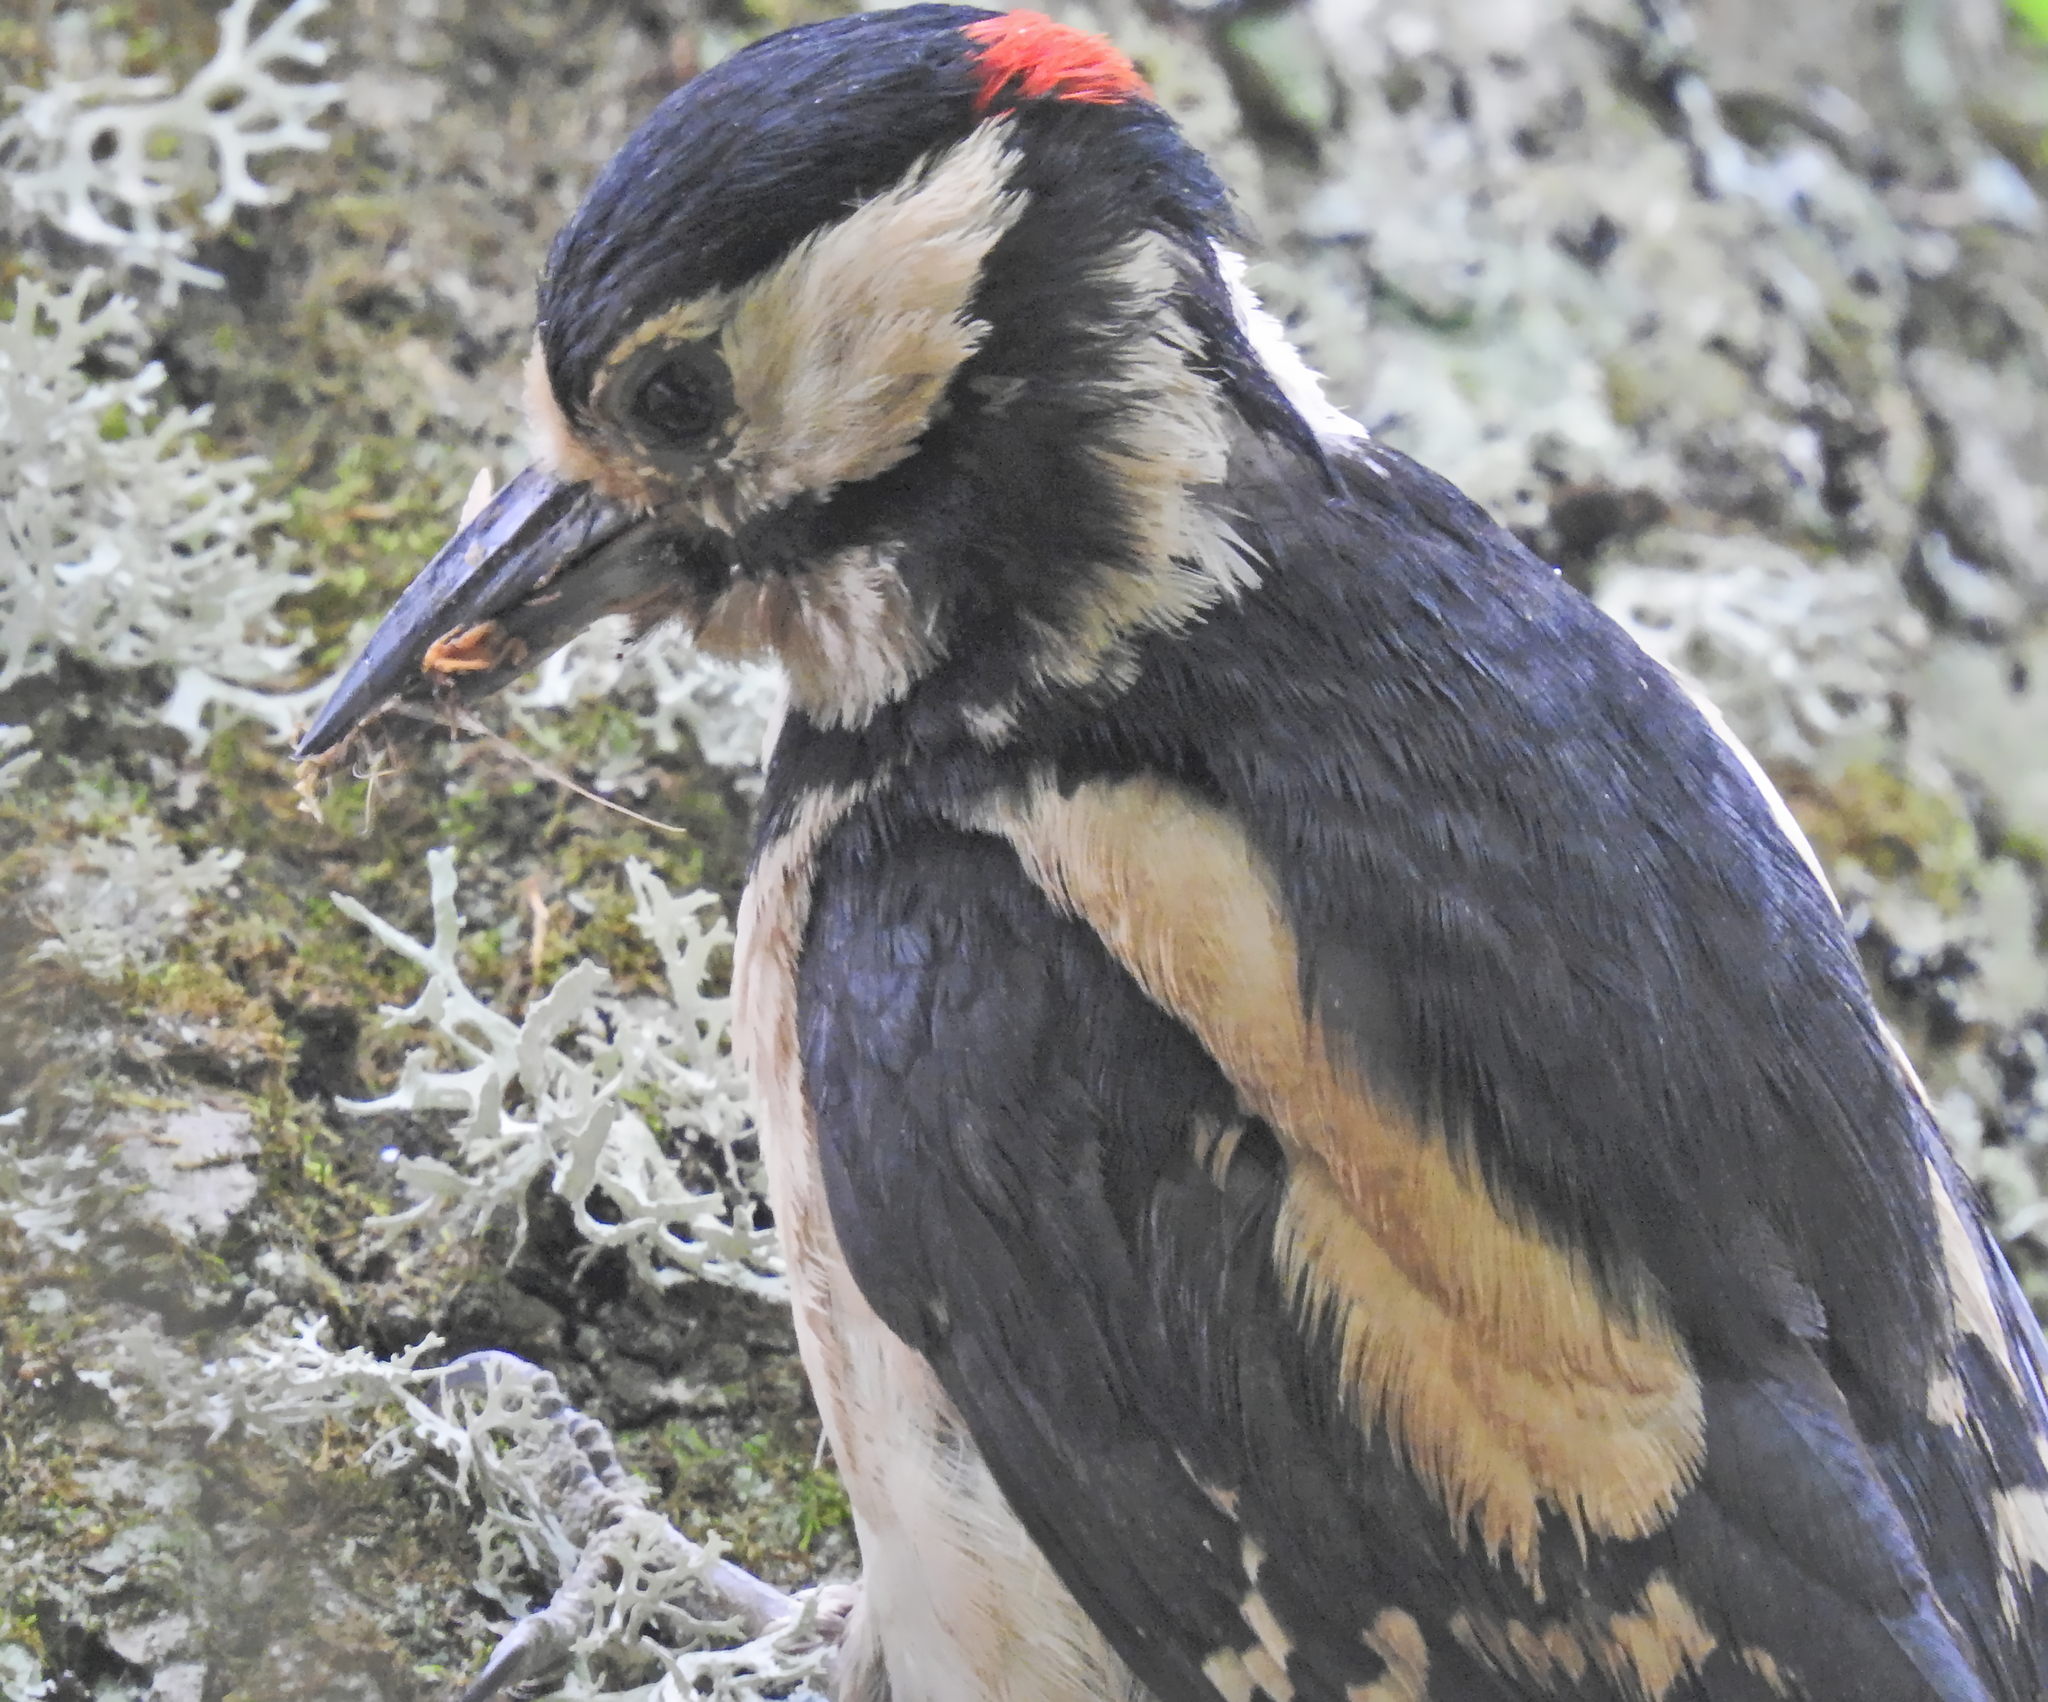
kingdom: Animalia
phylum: Chordata
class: Aves
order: Piciformes
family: Picidae
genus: Dendrocopos
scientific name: Dendrocopos major
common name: Great spotted woodpecker
